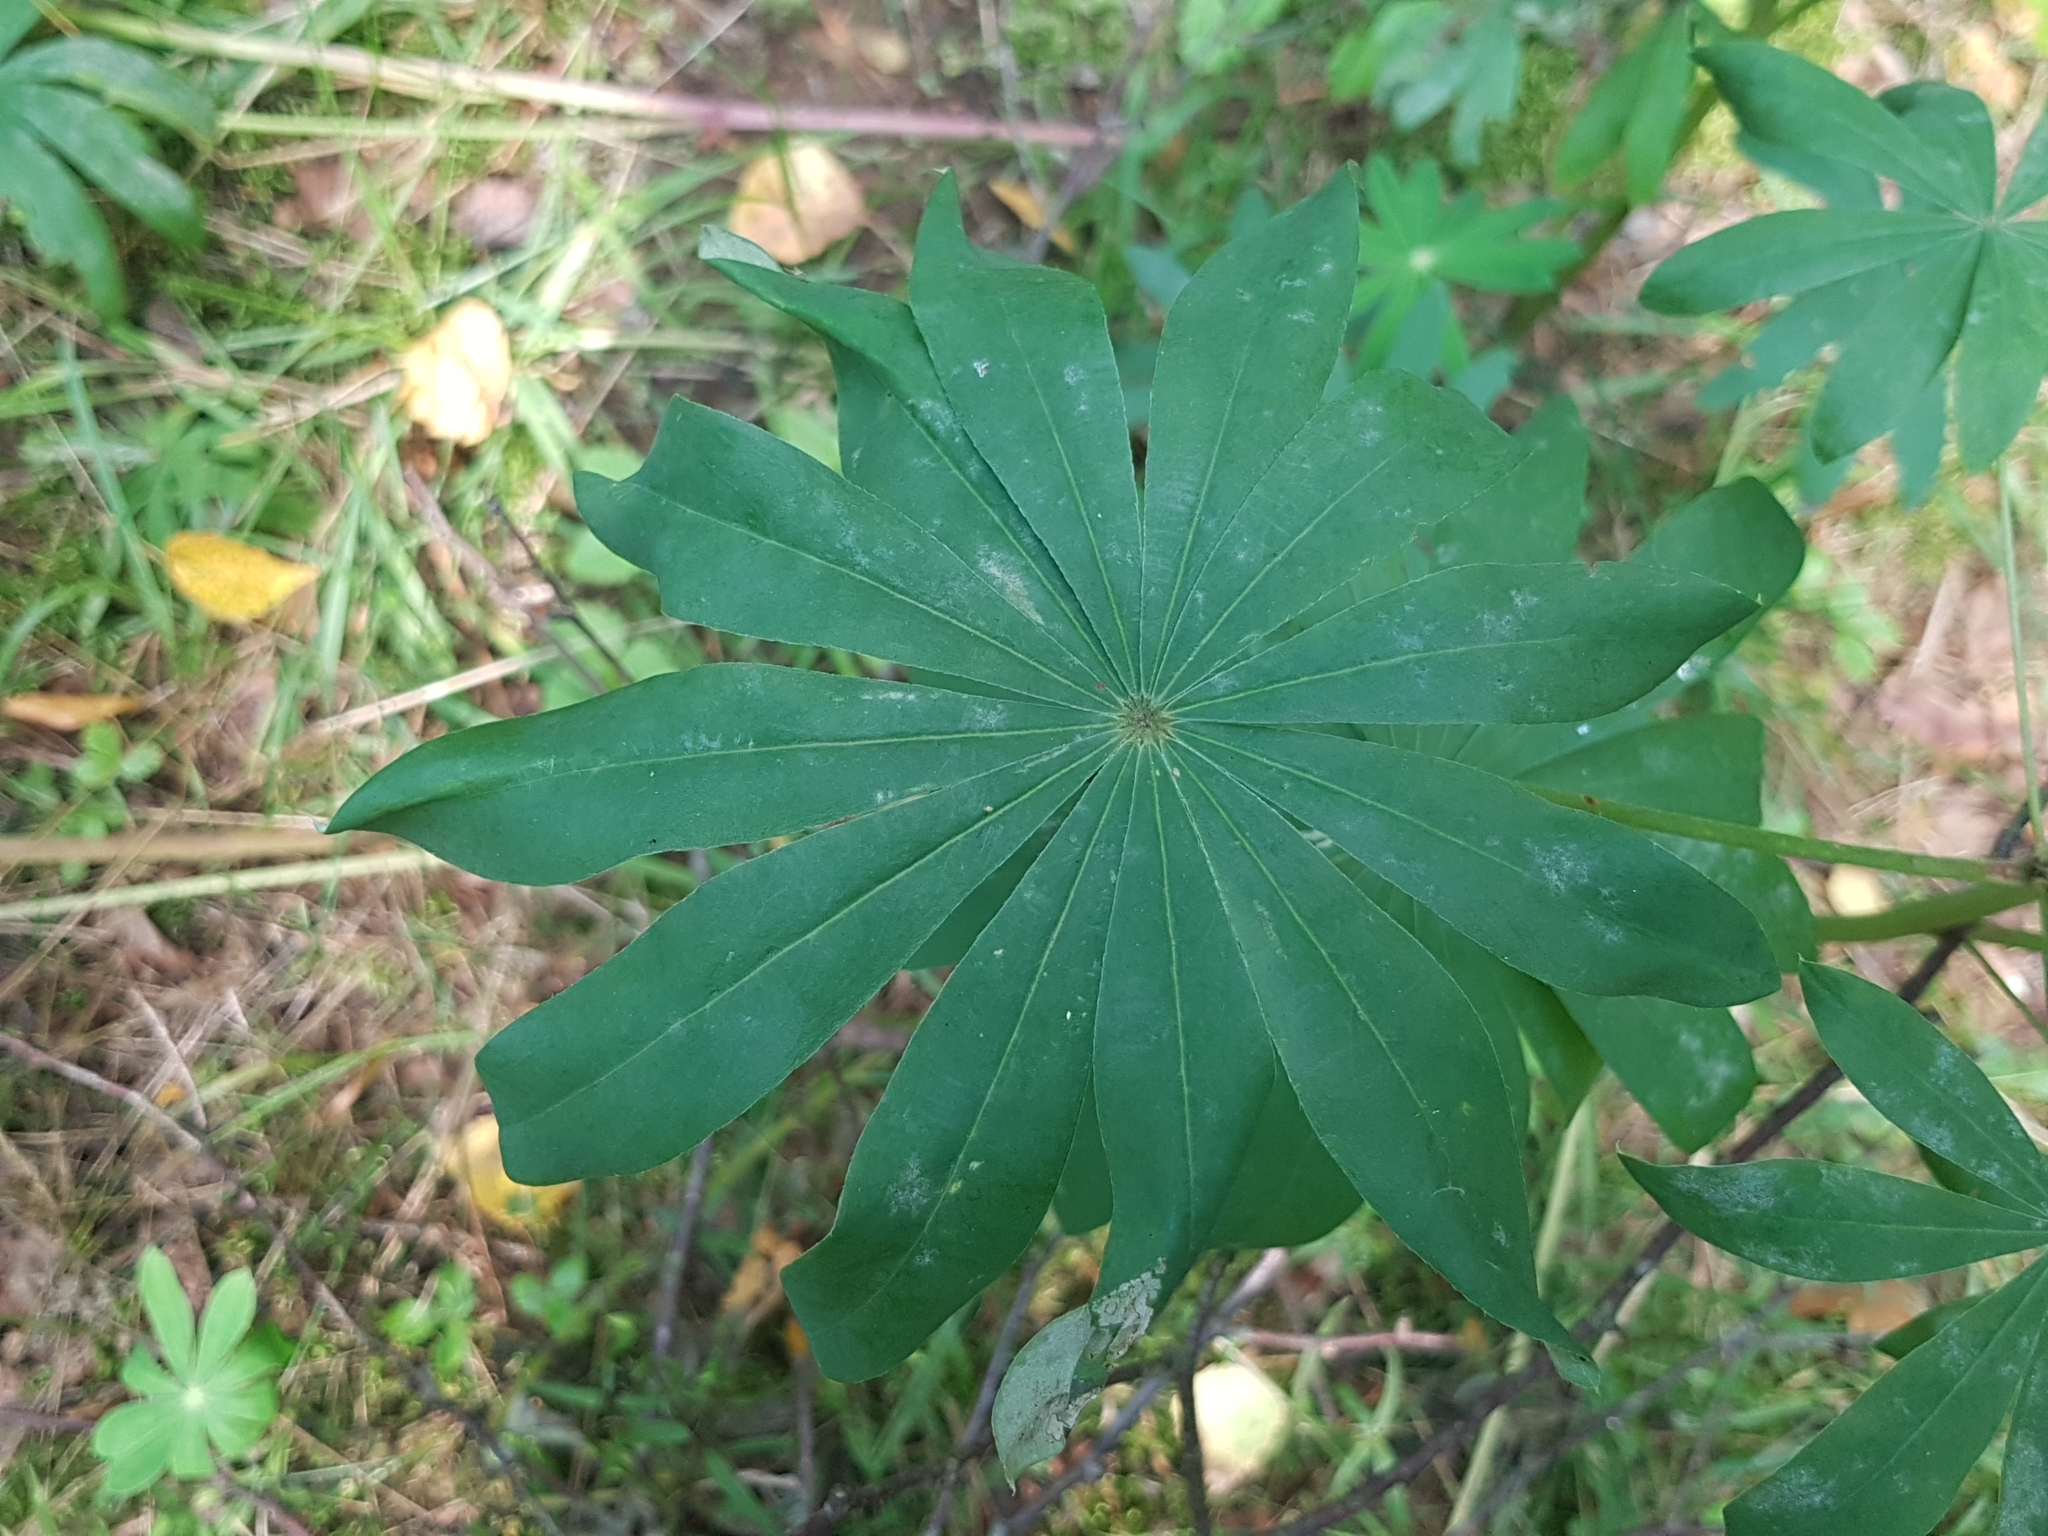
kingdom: Plantae
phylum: Tracheophyta
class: Magnoliopsida
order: Fabales
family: Fabaceae
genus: Lupinus
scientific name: Lupinus polyphyllus
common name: Garden lupin
